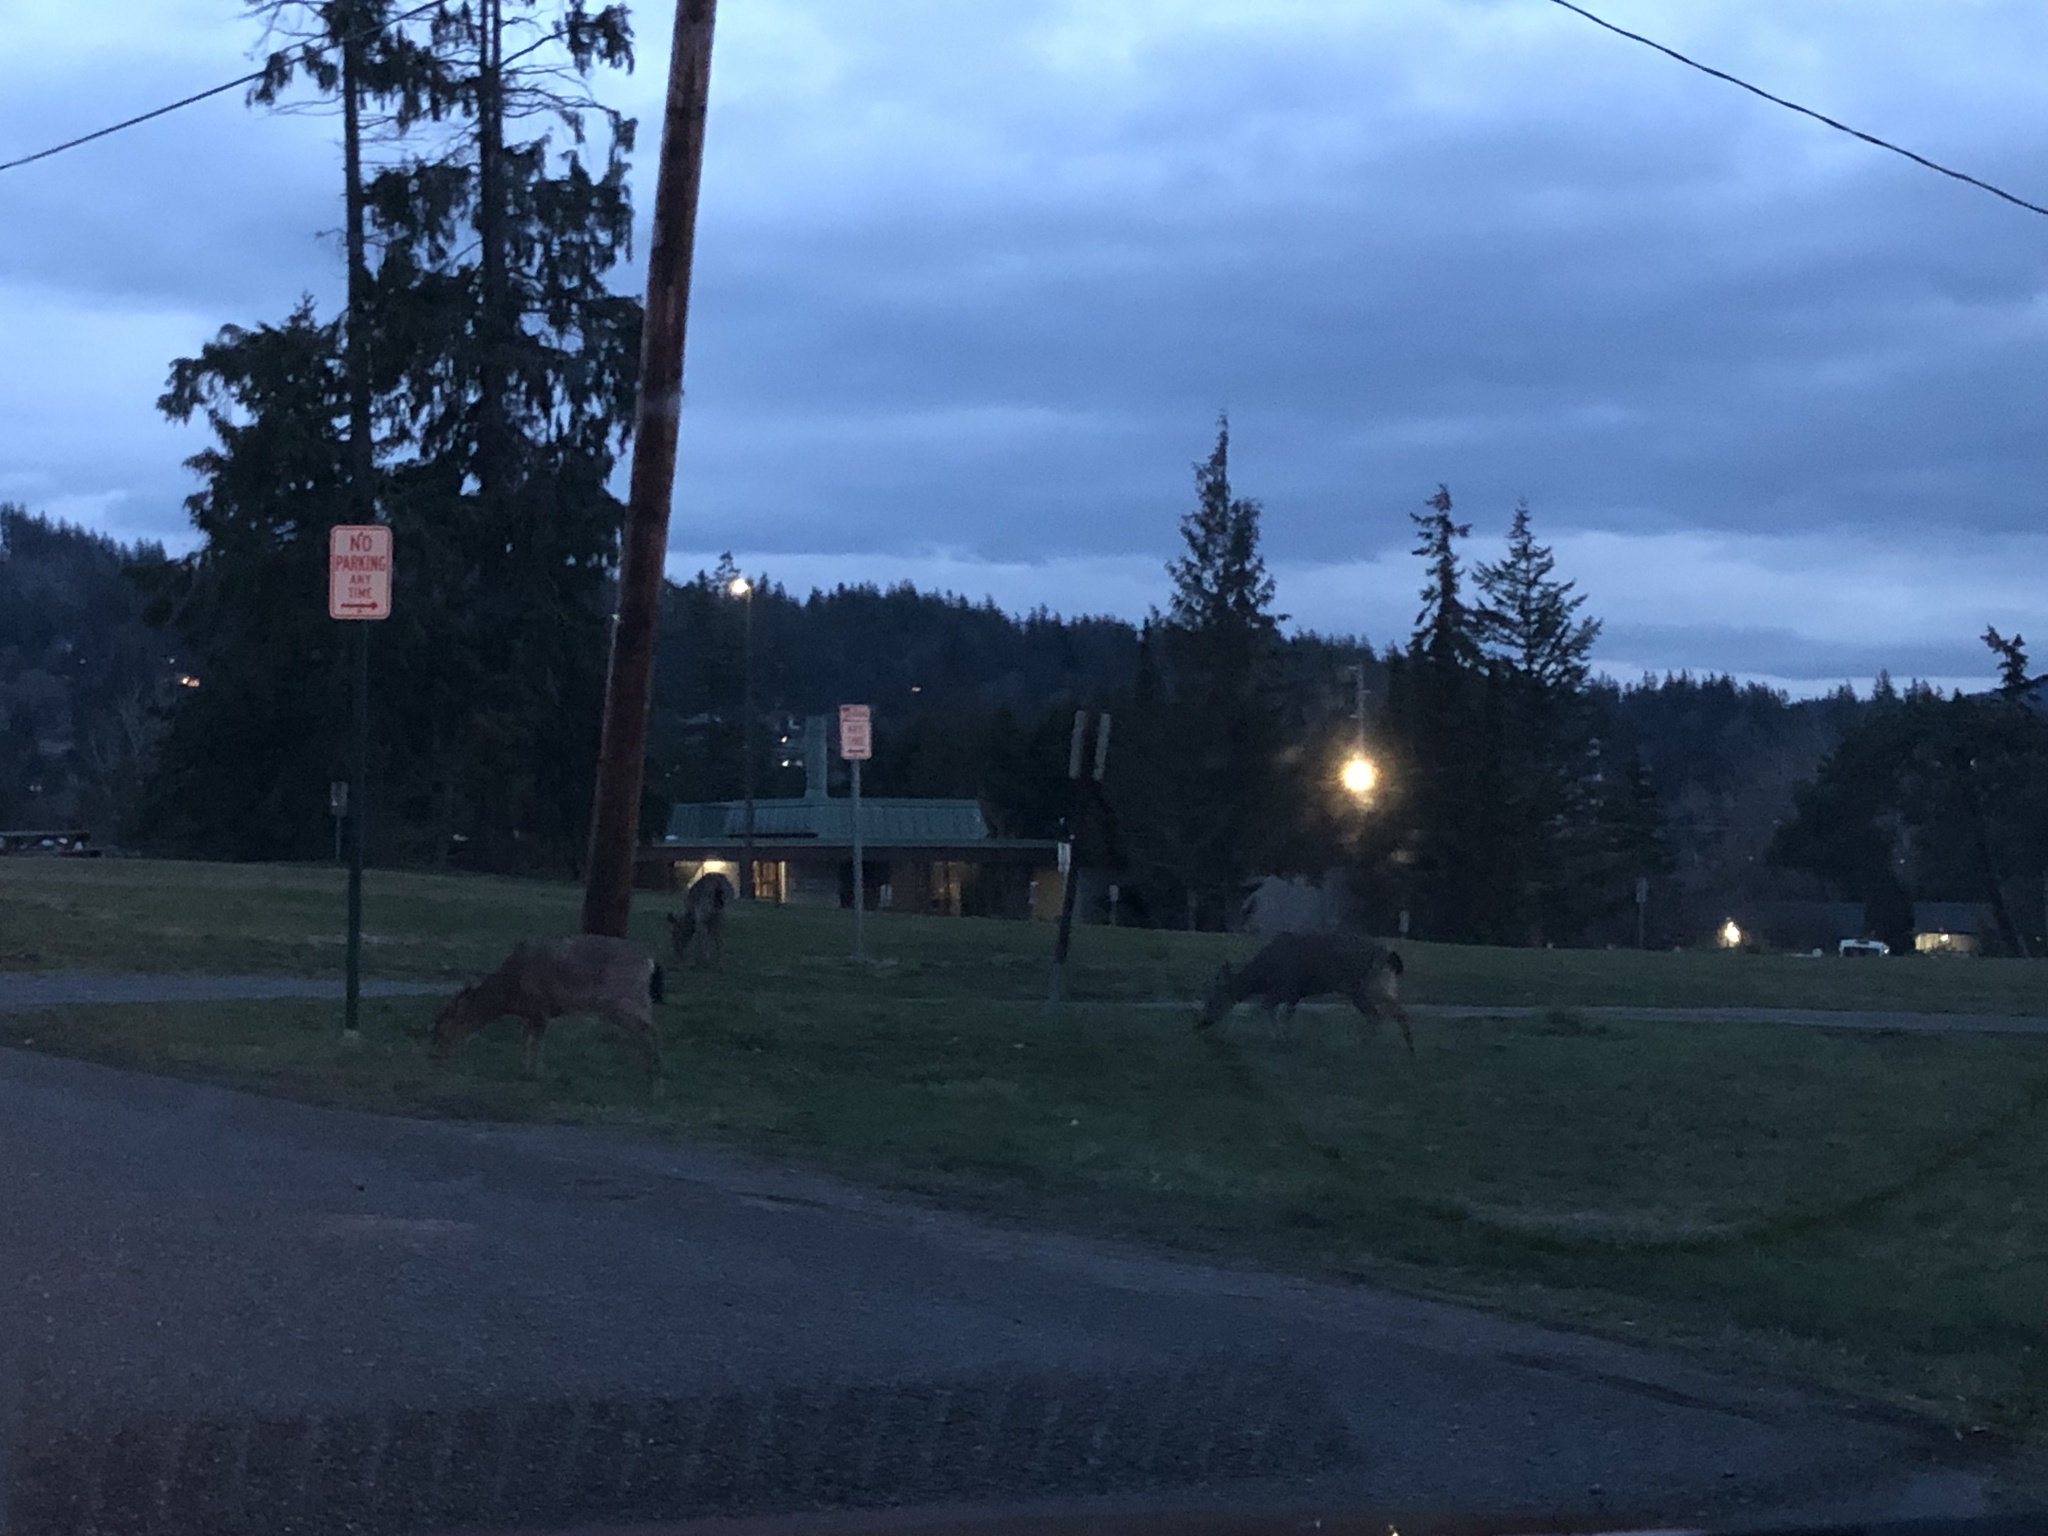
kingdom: Animalia
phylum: Chordata
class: Mammalia
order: Artiodactyla
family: Cervidae
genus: Odocoileus
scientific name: Odocoileus hemionus
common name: Mule deer
